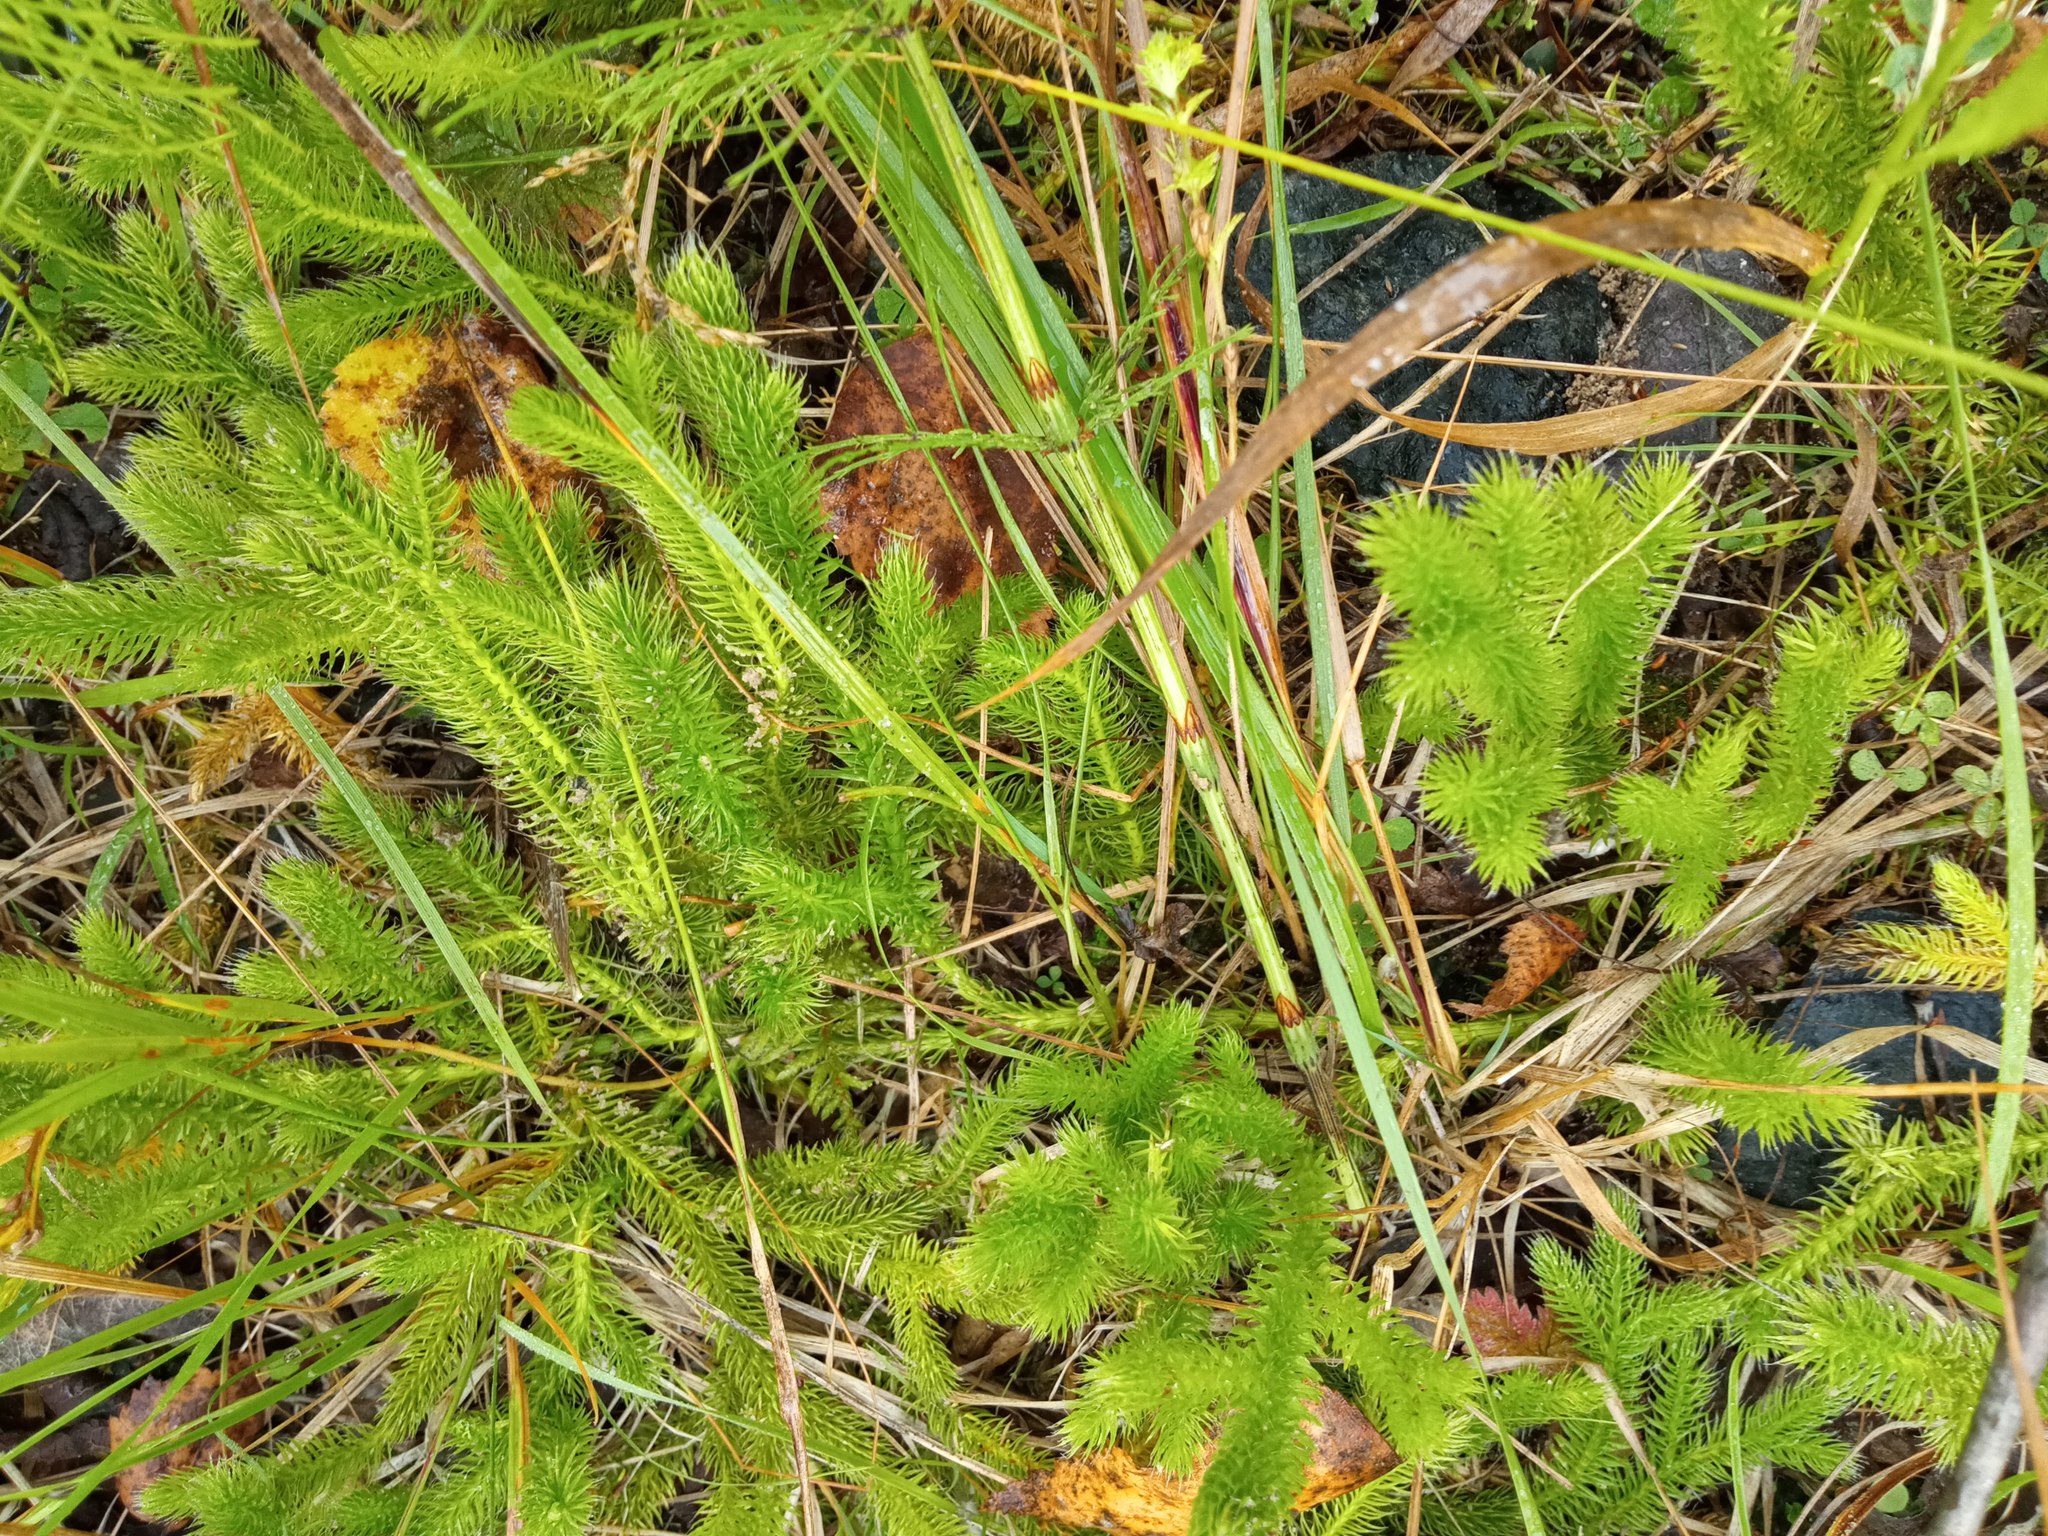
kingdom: Plantae
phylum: Tracheophyta
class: Lycopodiopsida
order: Lycopodiales
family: Lycopodiaceae
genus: Lycopodium
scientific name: Lycopodium clavatum
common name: Stag's-horn clubmoss
